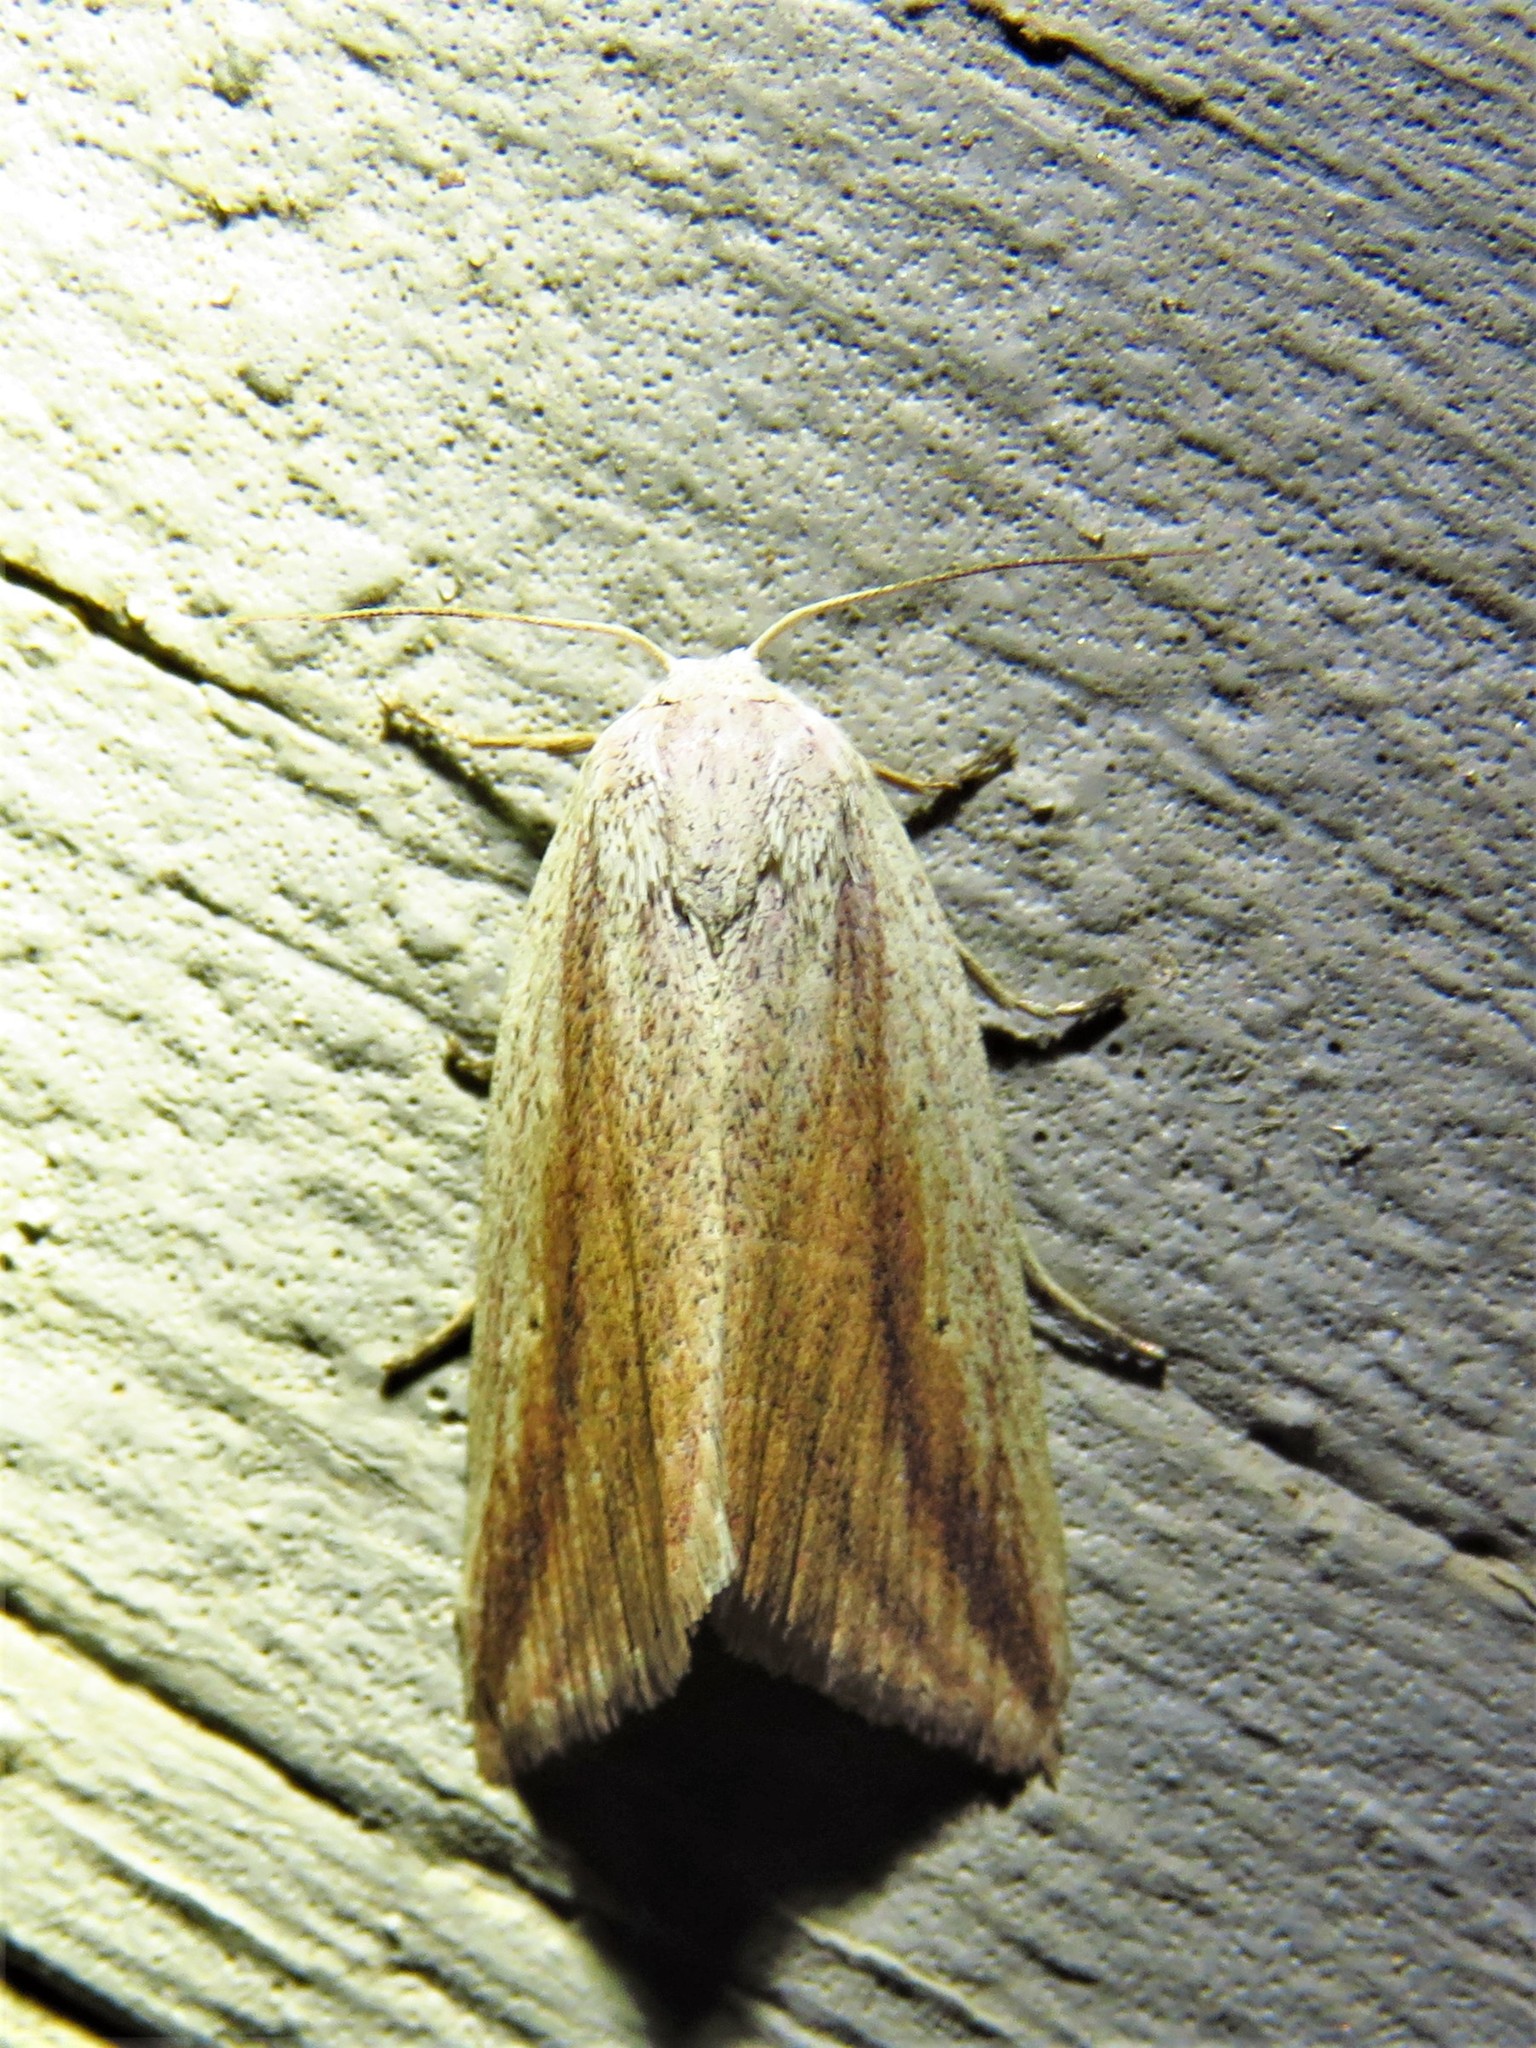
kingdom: Animalia
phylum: Arthropoda
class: Insecta
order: Lepidoptera
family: Noctuidae
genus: Amolita
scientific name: Amolita fessa
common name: Feeble grass moth
